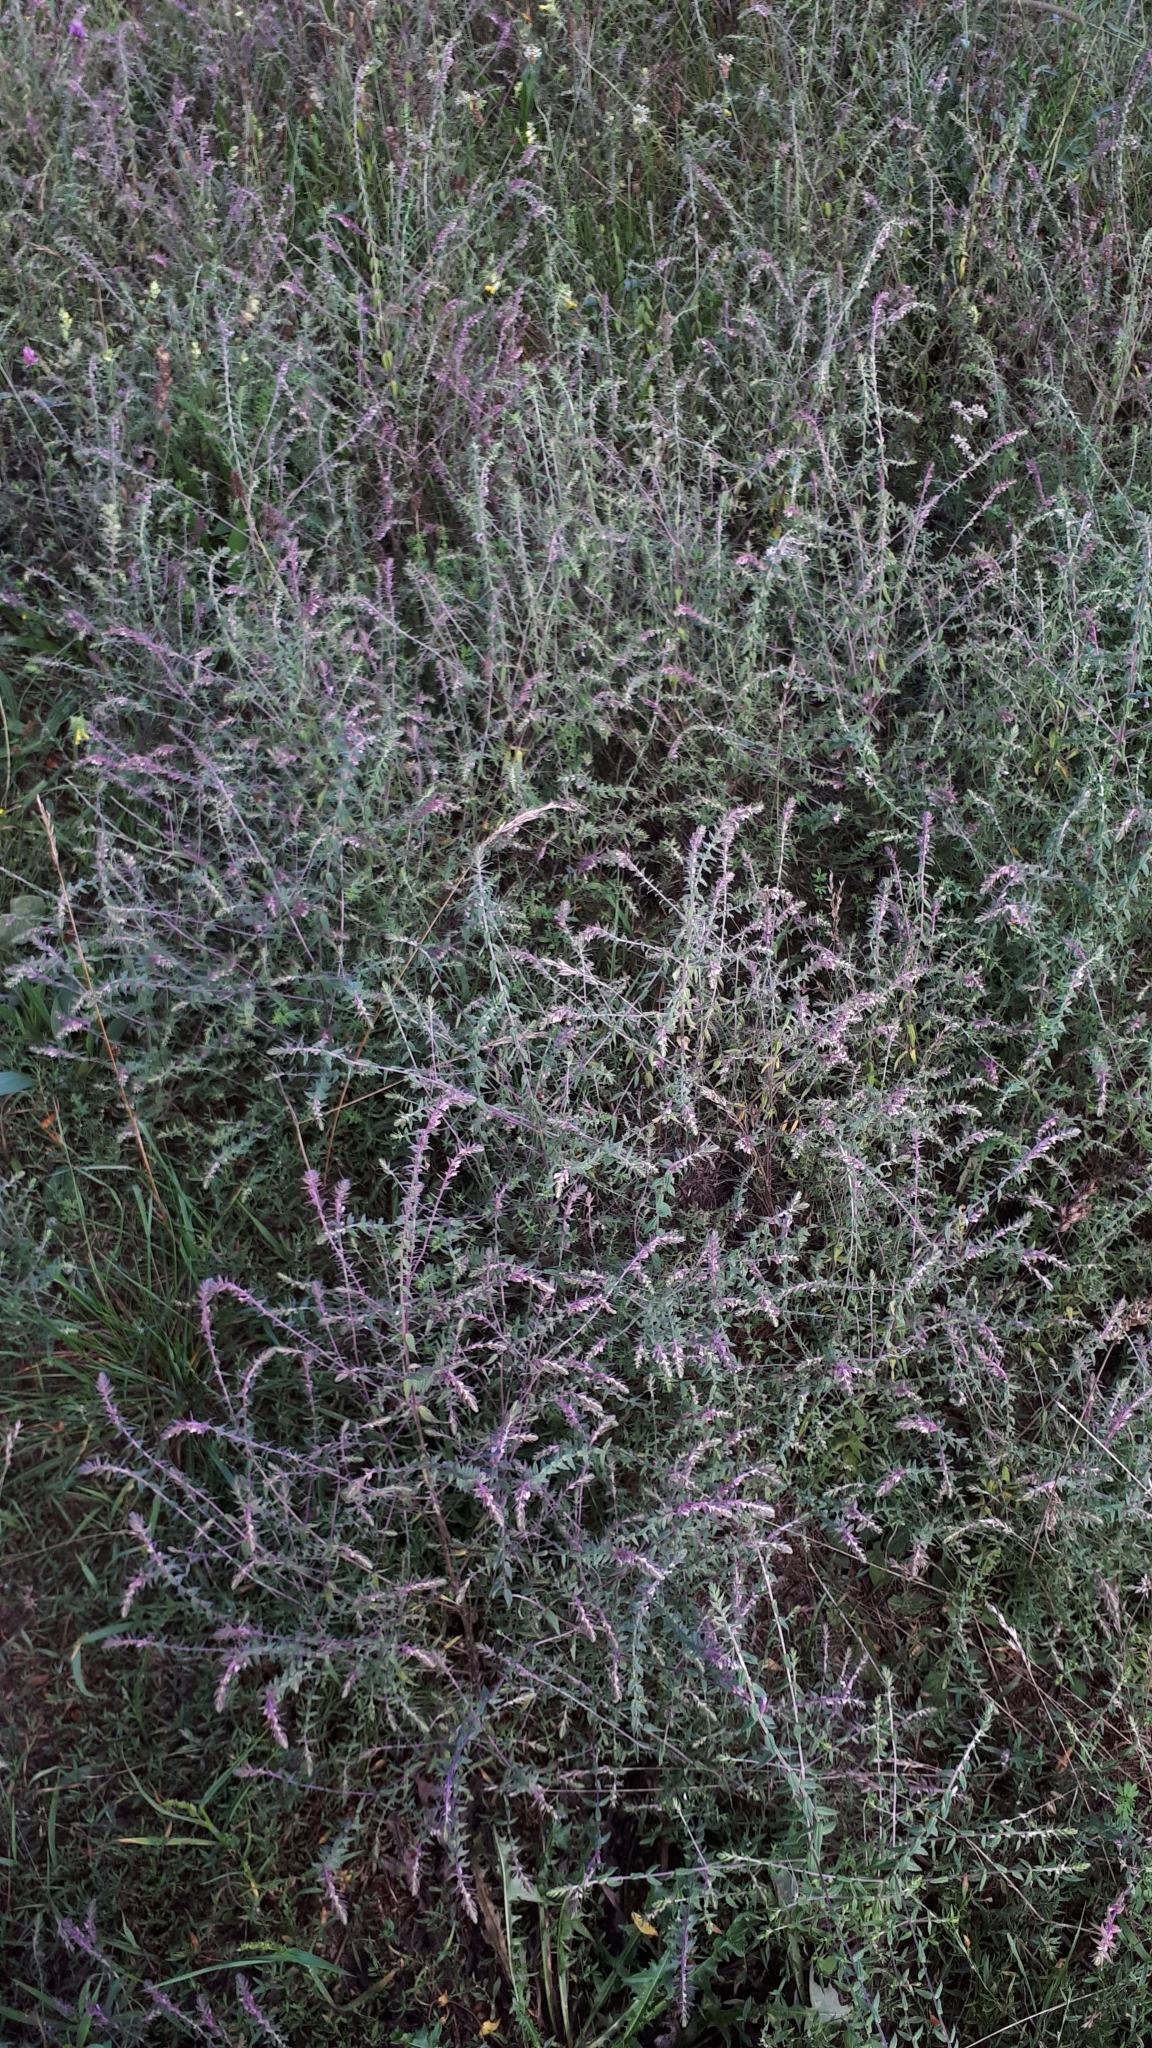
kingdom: Plantae
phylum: Tracheophyta
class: Magnoliopsida
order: Lamiales
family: Orobanchaceae
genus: Odontites
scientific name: Odontites vulgaris
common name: Broomrape
